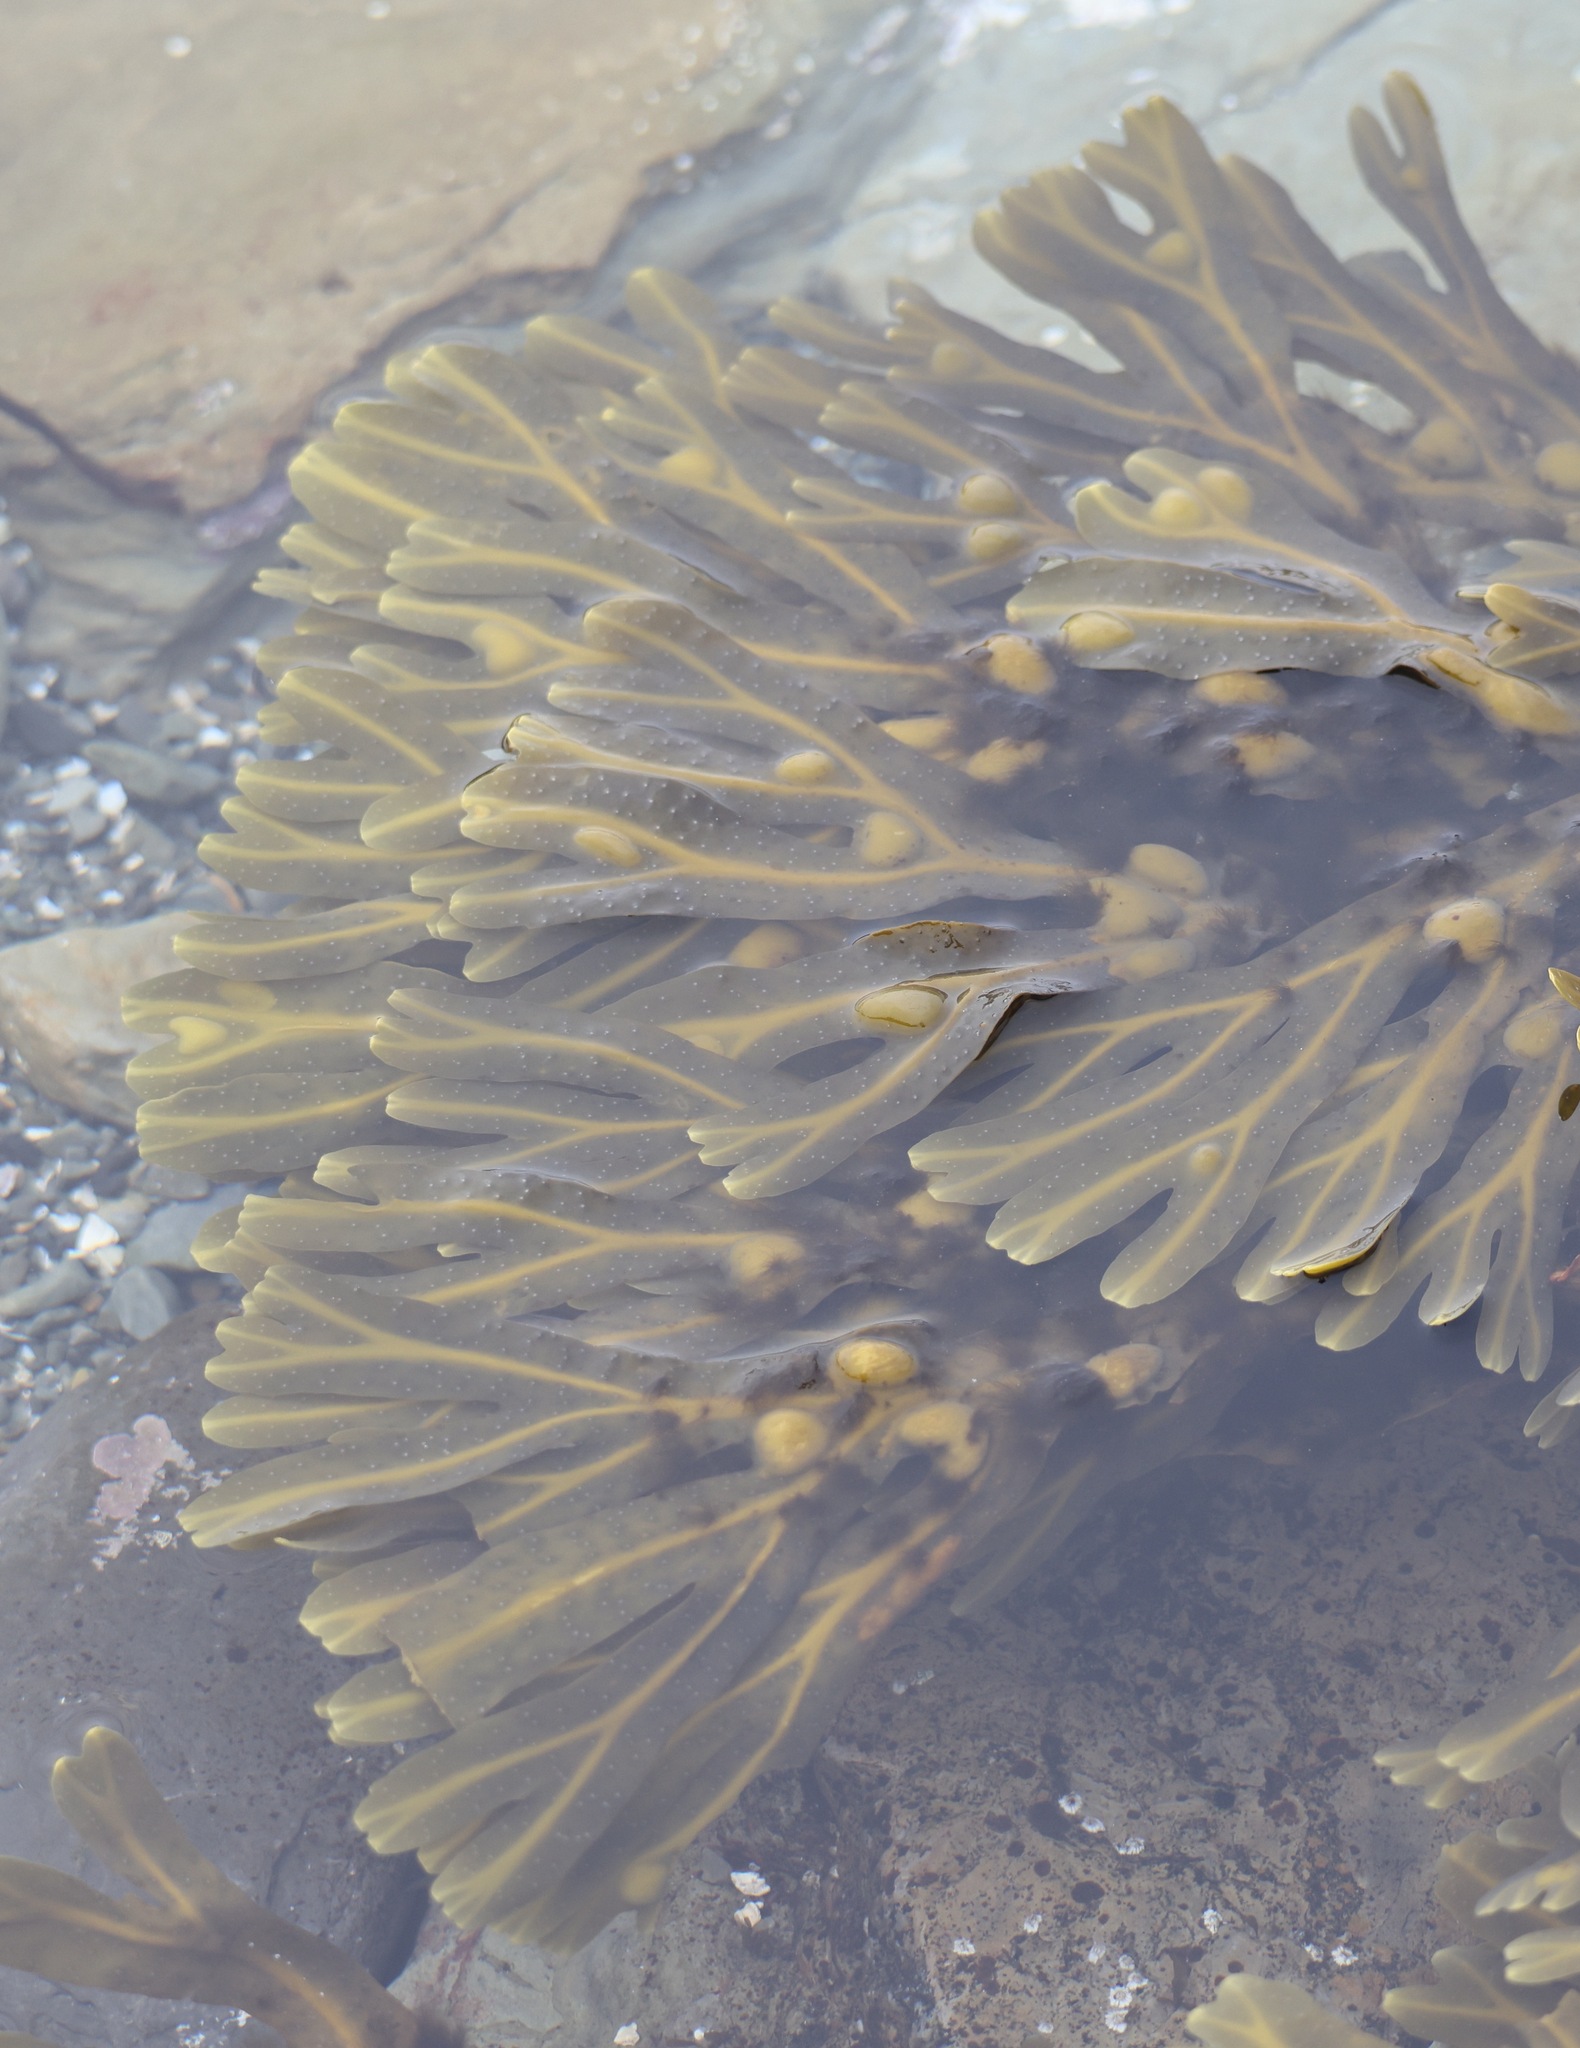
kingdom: Chromista
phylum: Ochrophyta
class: Phaeophyceae
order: Fucales
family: Fucaceae
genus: Fucus
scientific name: Fucus vesiculosus
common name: Bladder wrack
